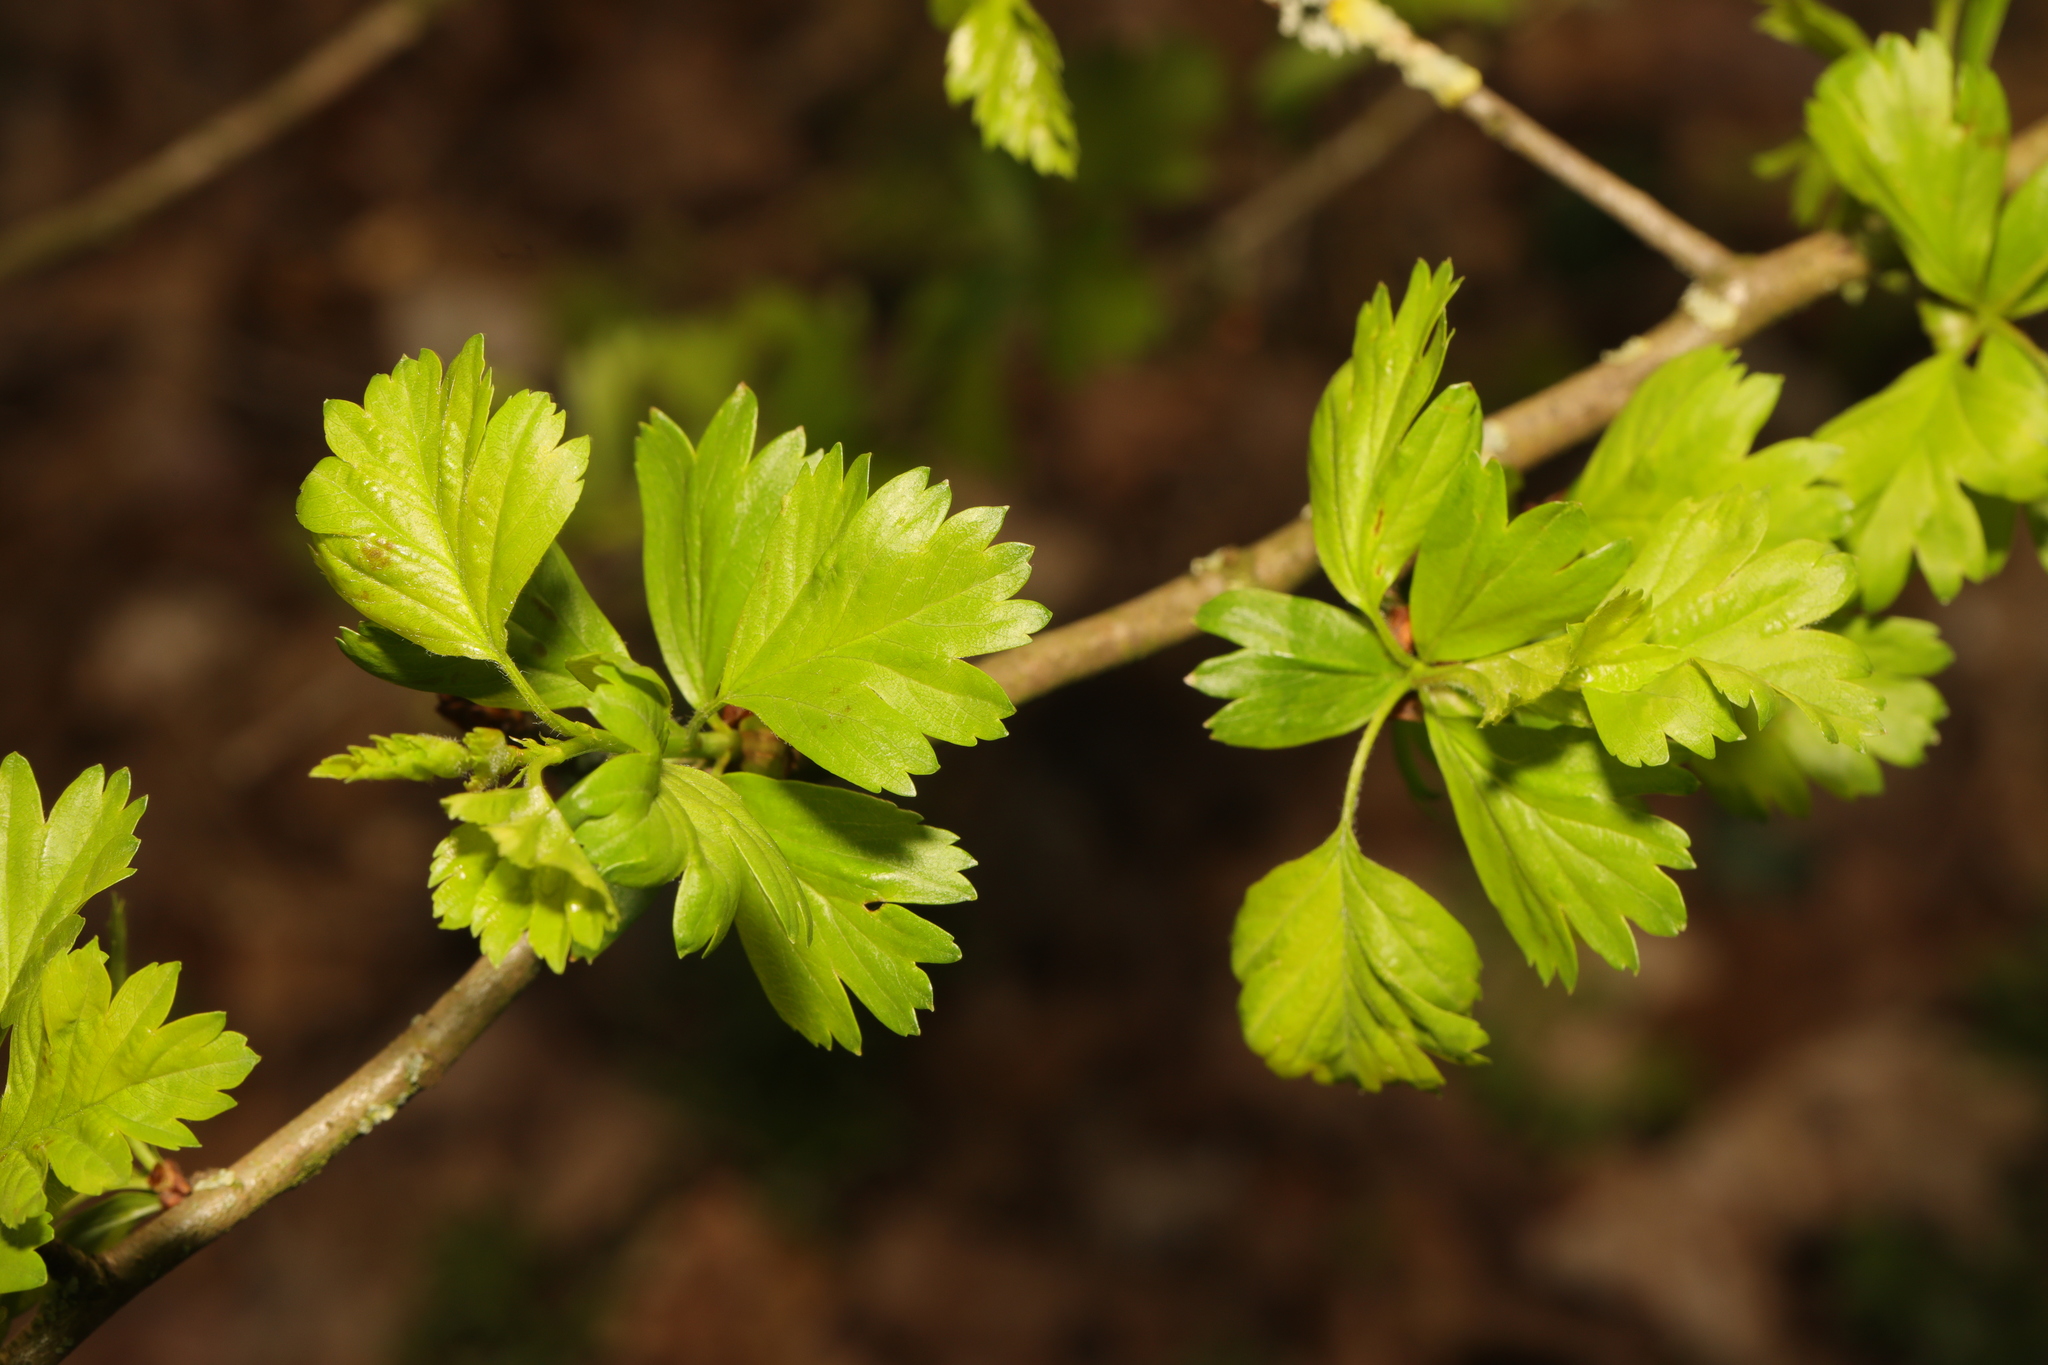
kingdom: Plantae
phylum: Tracheophyta
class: Magnoliopsida
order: Rosales
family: Rosaceae
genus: Crataegus
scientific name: Crataegus monogyna
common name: Hawthorn
